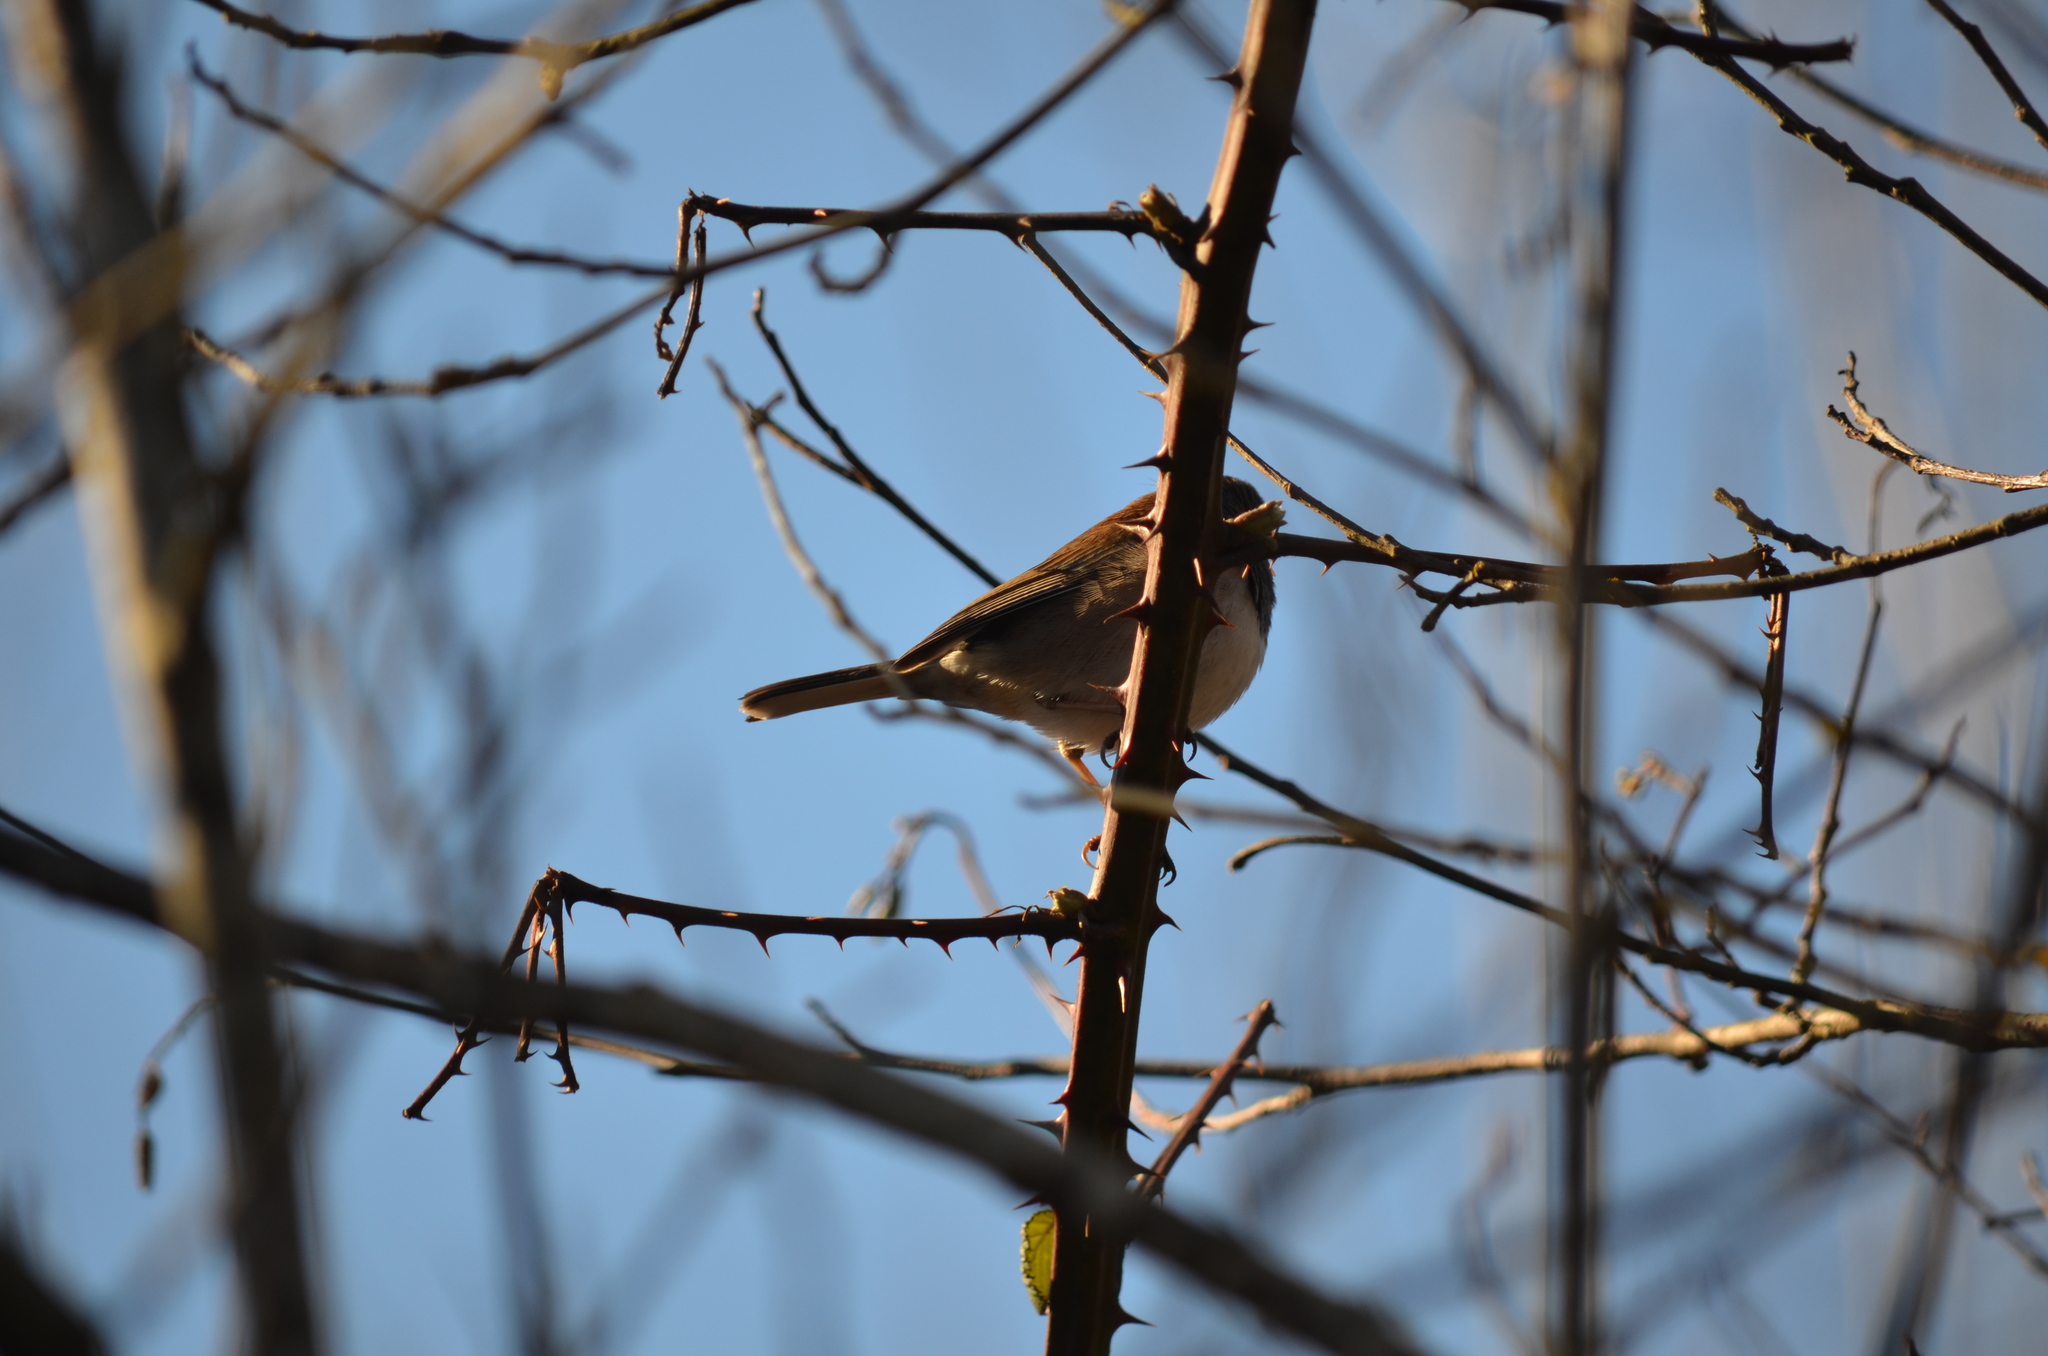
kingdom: Animalia
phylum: Chordata
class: Aves
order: Passeriformes
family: Passerellidae
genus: Junco
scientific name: Junco hyemalis
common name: Dark-eyed junco
